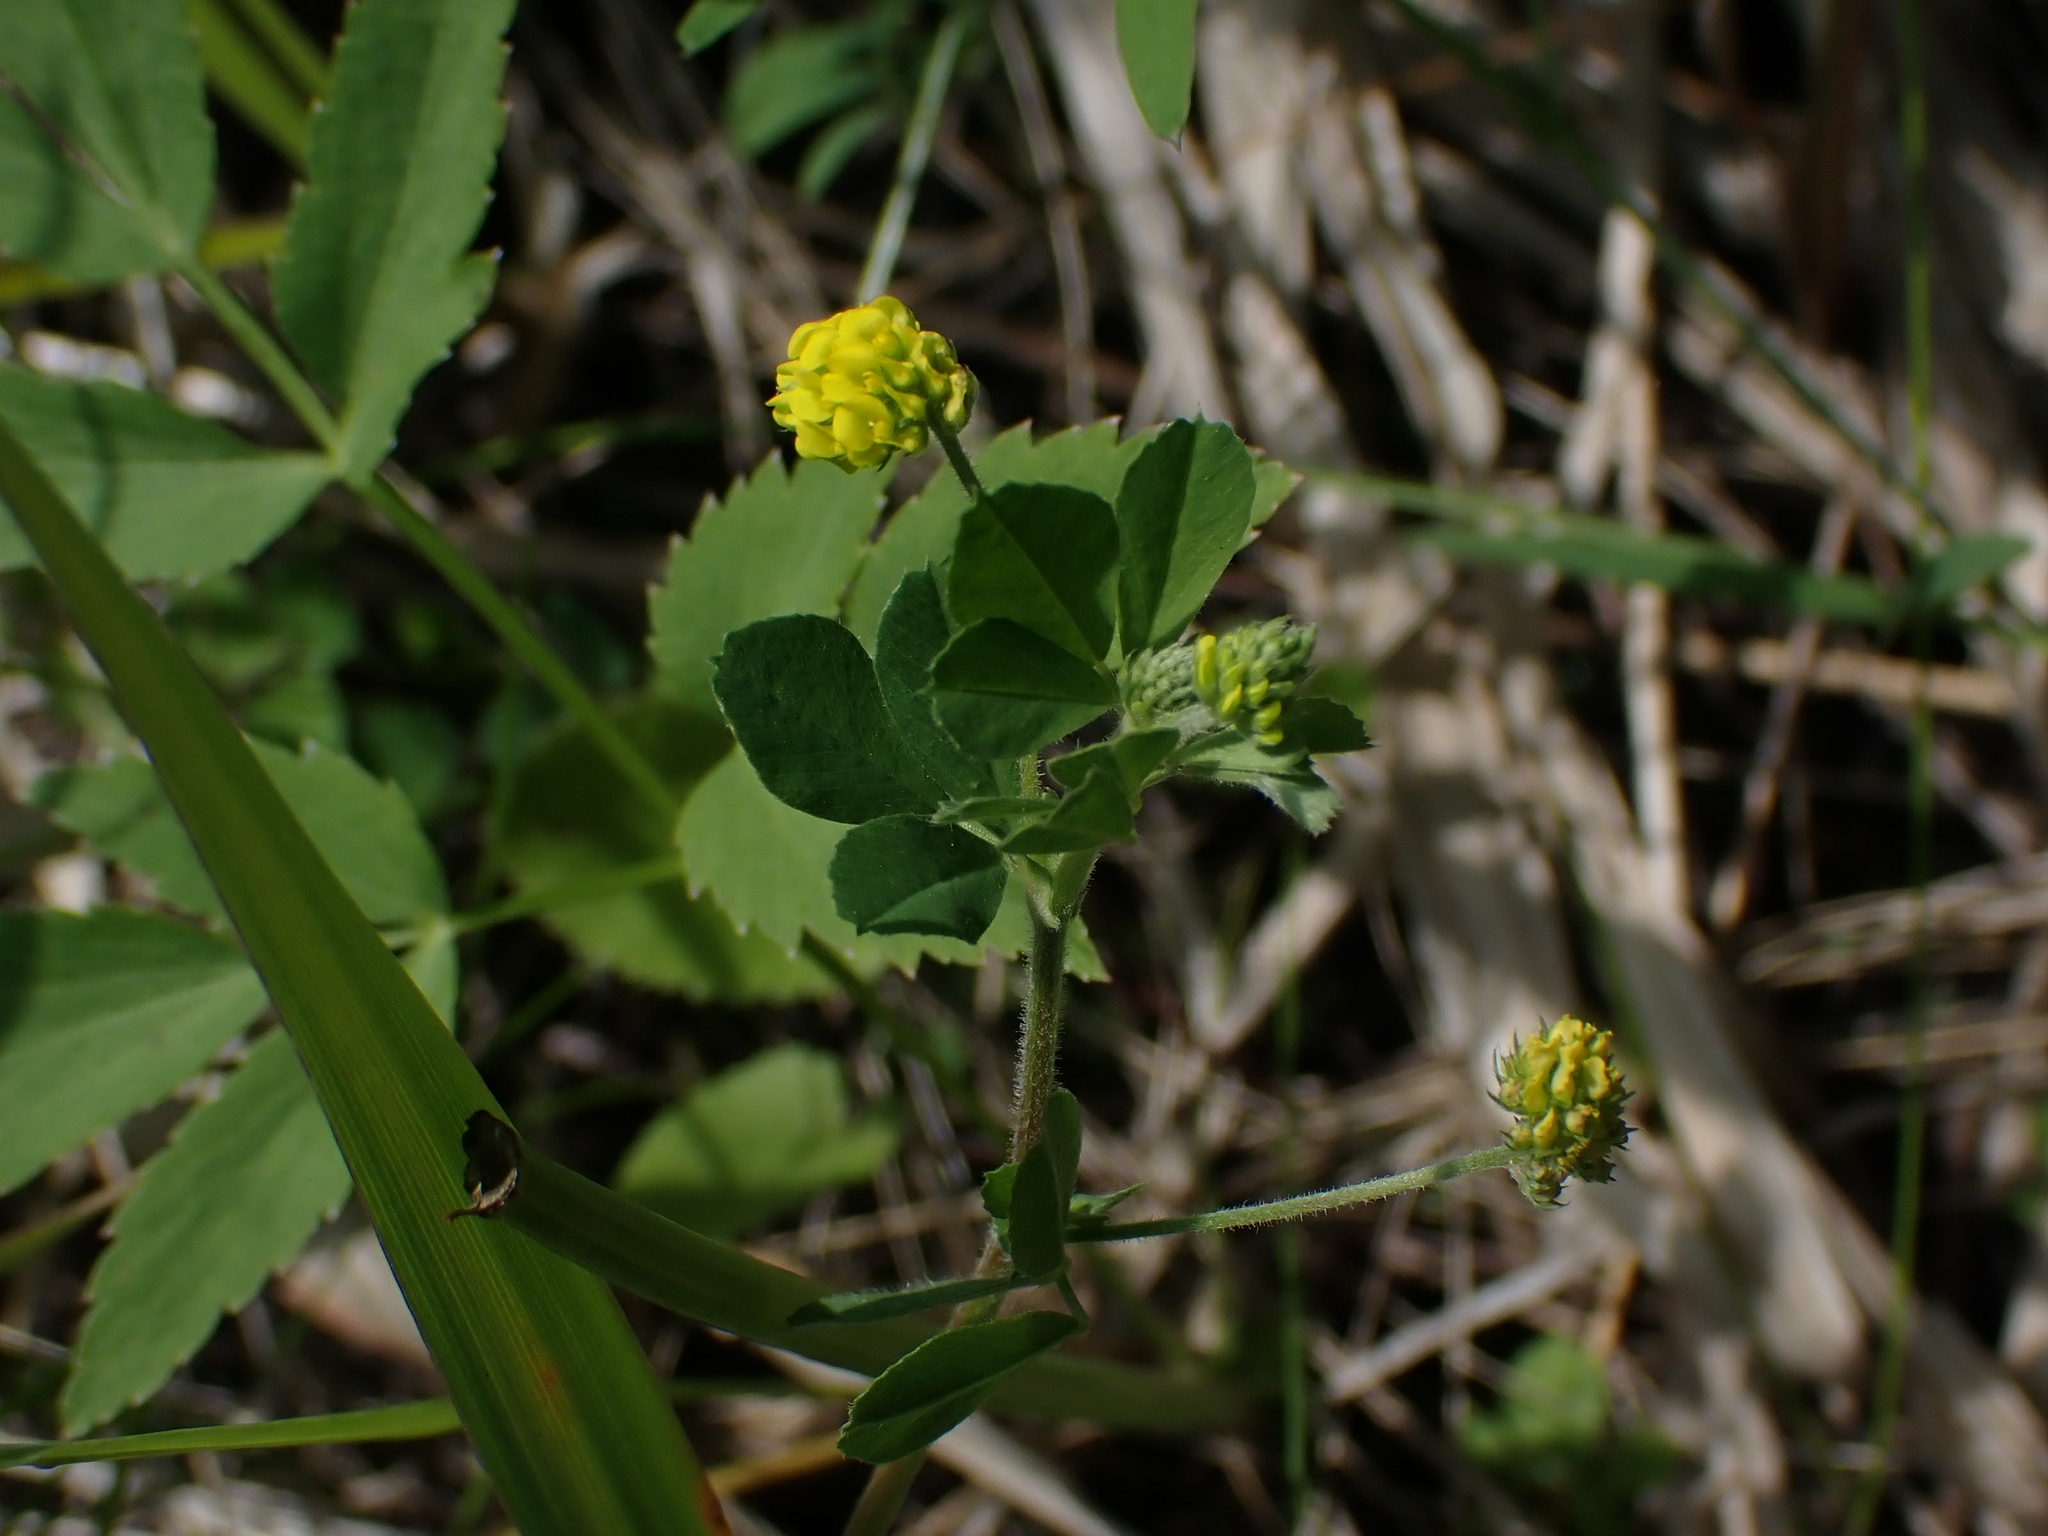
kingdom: Plantae
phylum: Tracheophyta
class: Magnoliopsida
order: Fabales
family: Fabaceae
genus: Medicago
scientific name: Medicago lupulina
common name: Black medick
